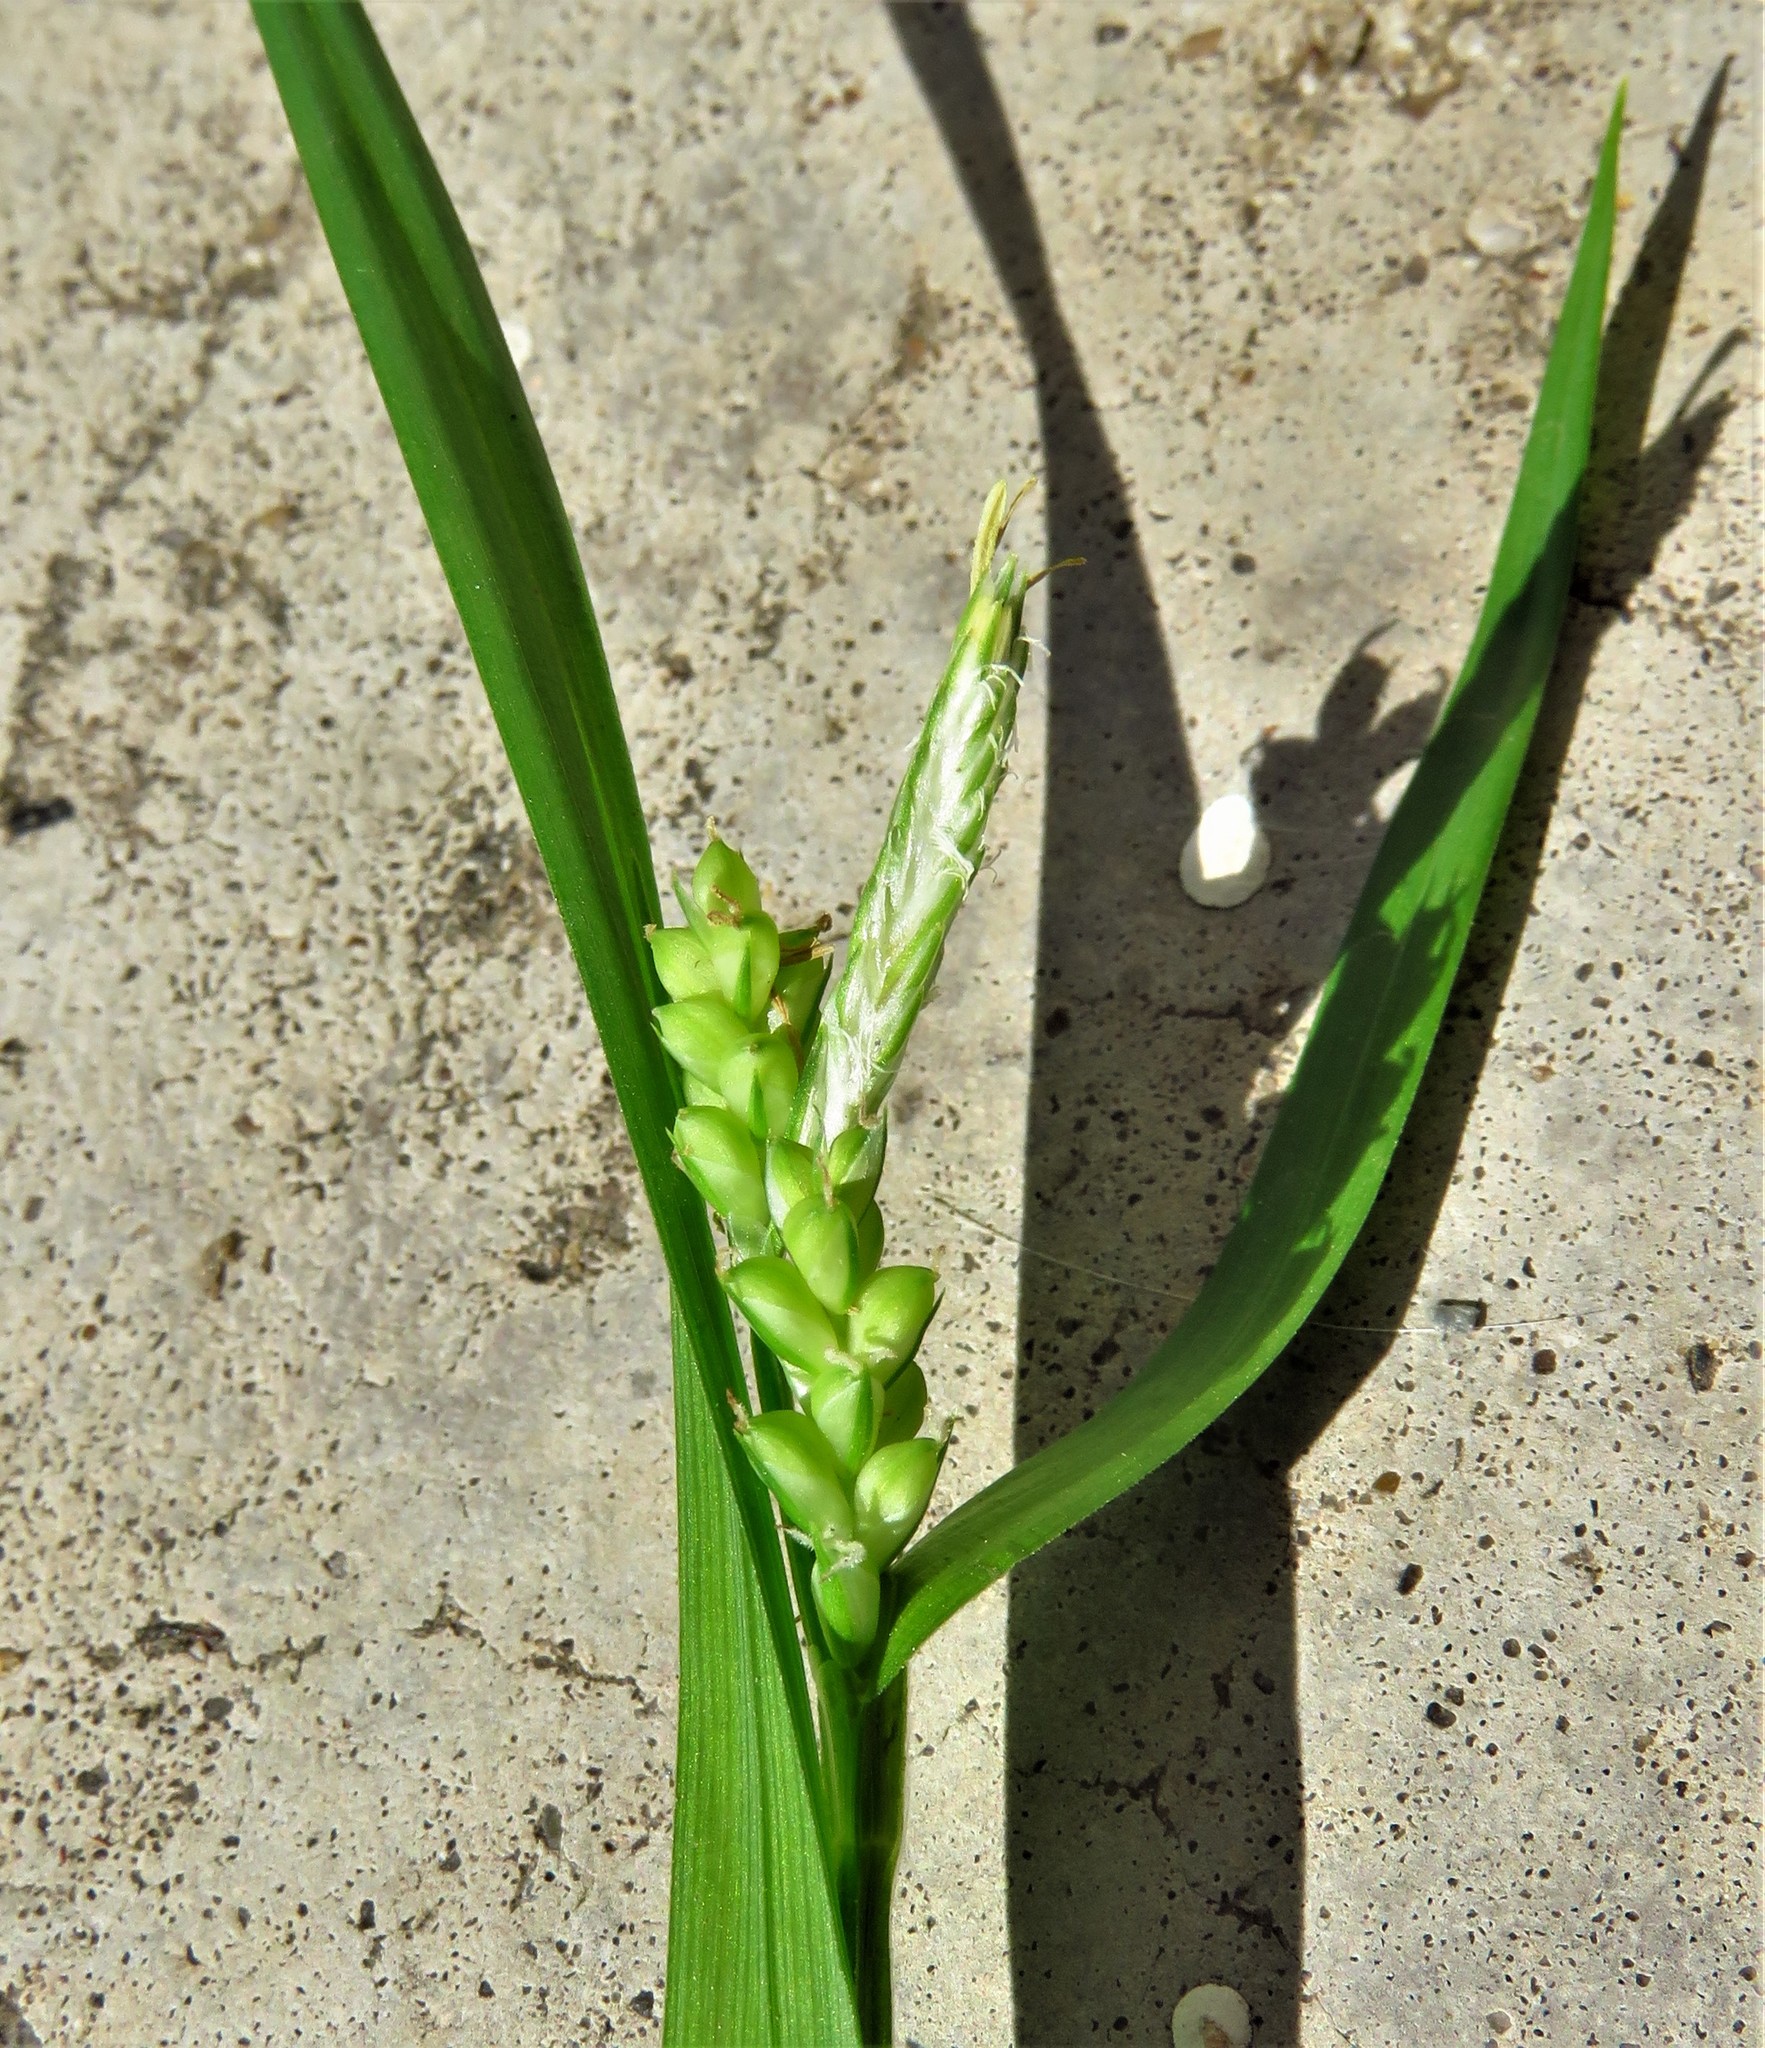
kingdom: Plantae
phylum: Tracheophyta
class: Liliopsida
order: Poales
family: Cyperaceae
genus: Carex
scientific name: Carex blanda
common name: Bland sedge
